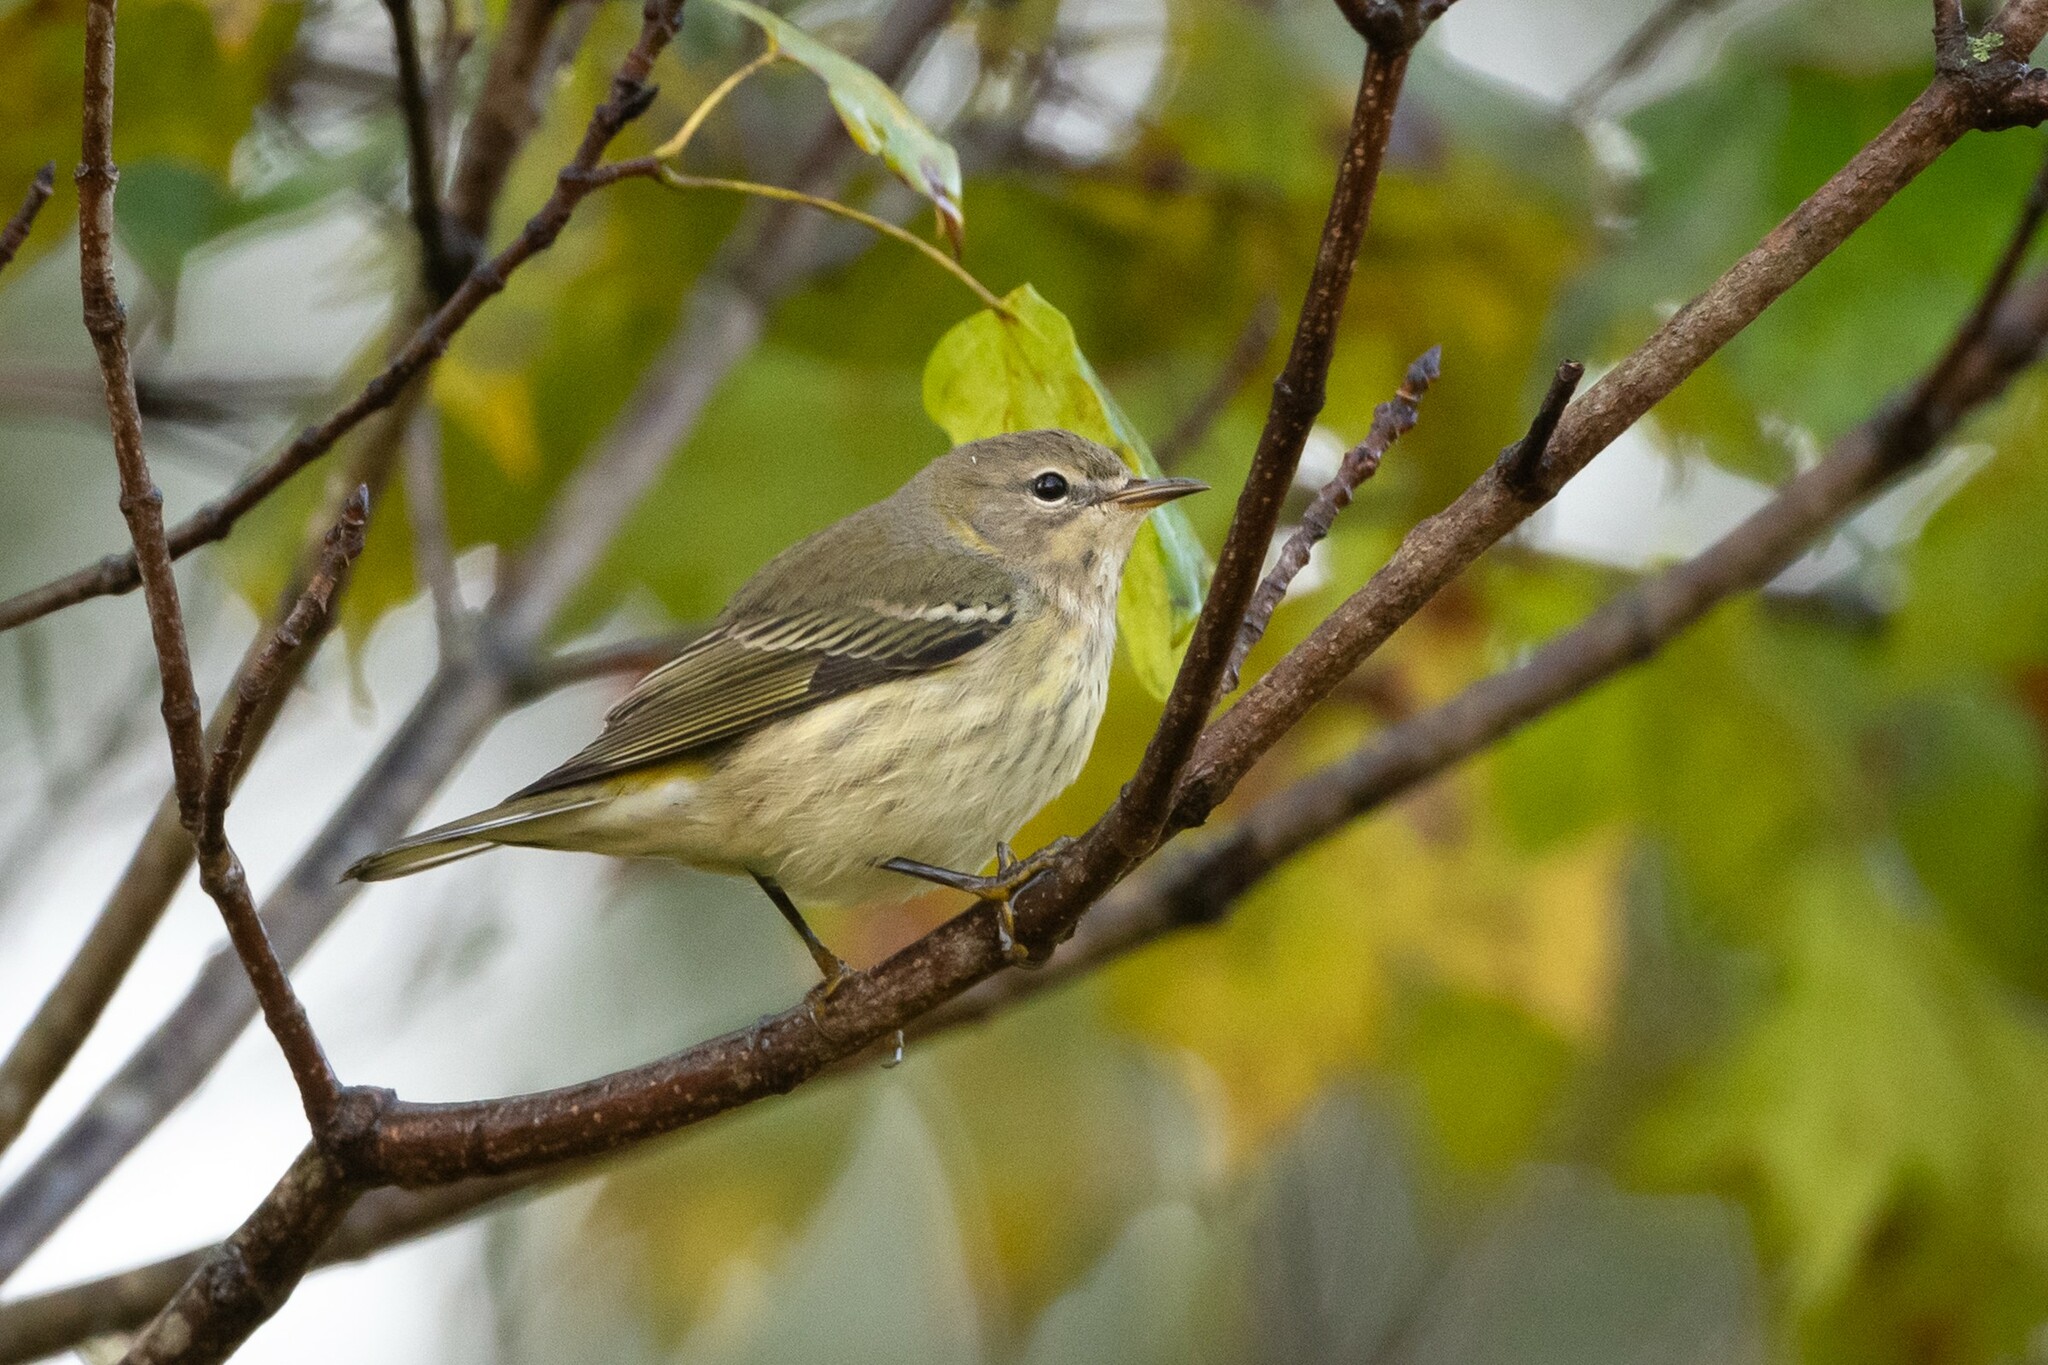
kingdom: Animalia
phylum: Chordata
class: Aves
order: Passeriformes
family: Parulidae
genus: Setophaga
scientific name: Setophaga tigrina
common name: Cape may warbler
